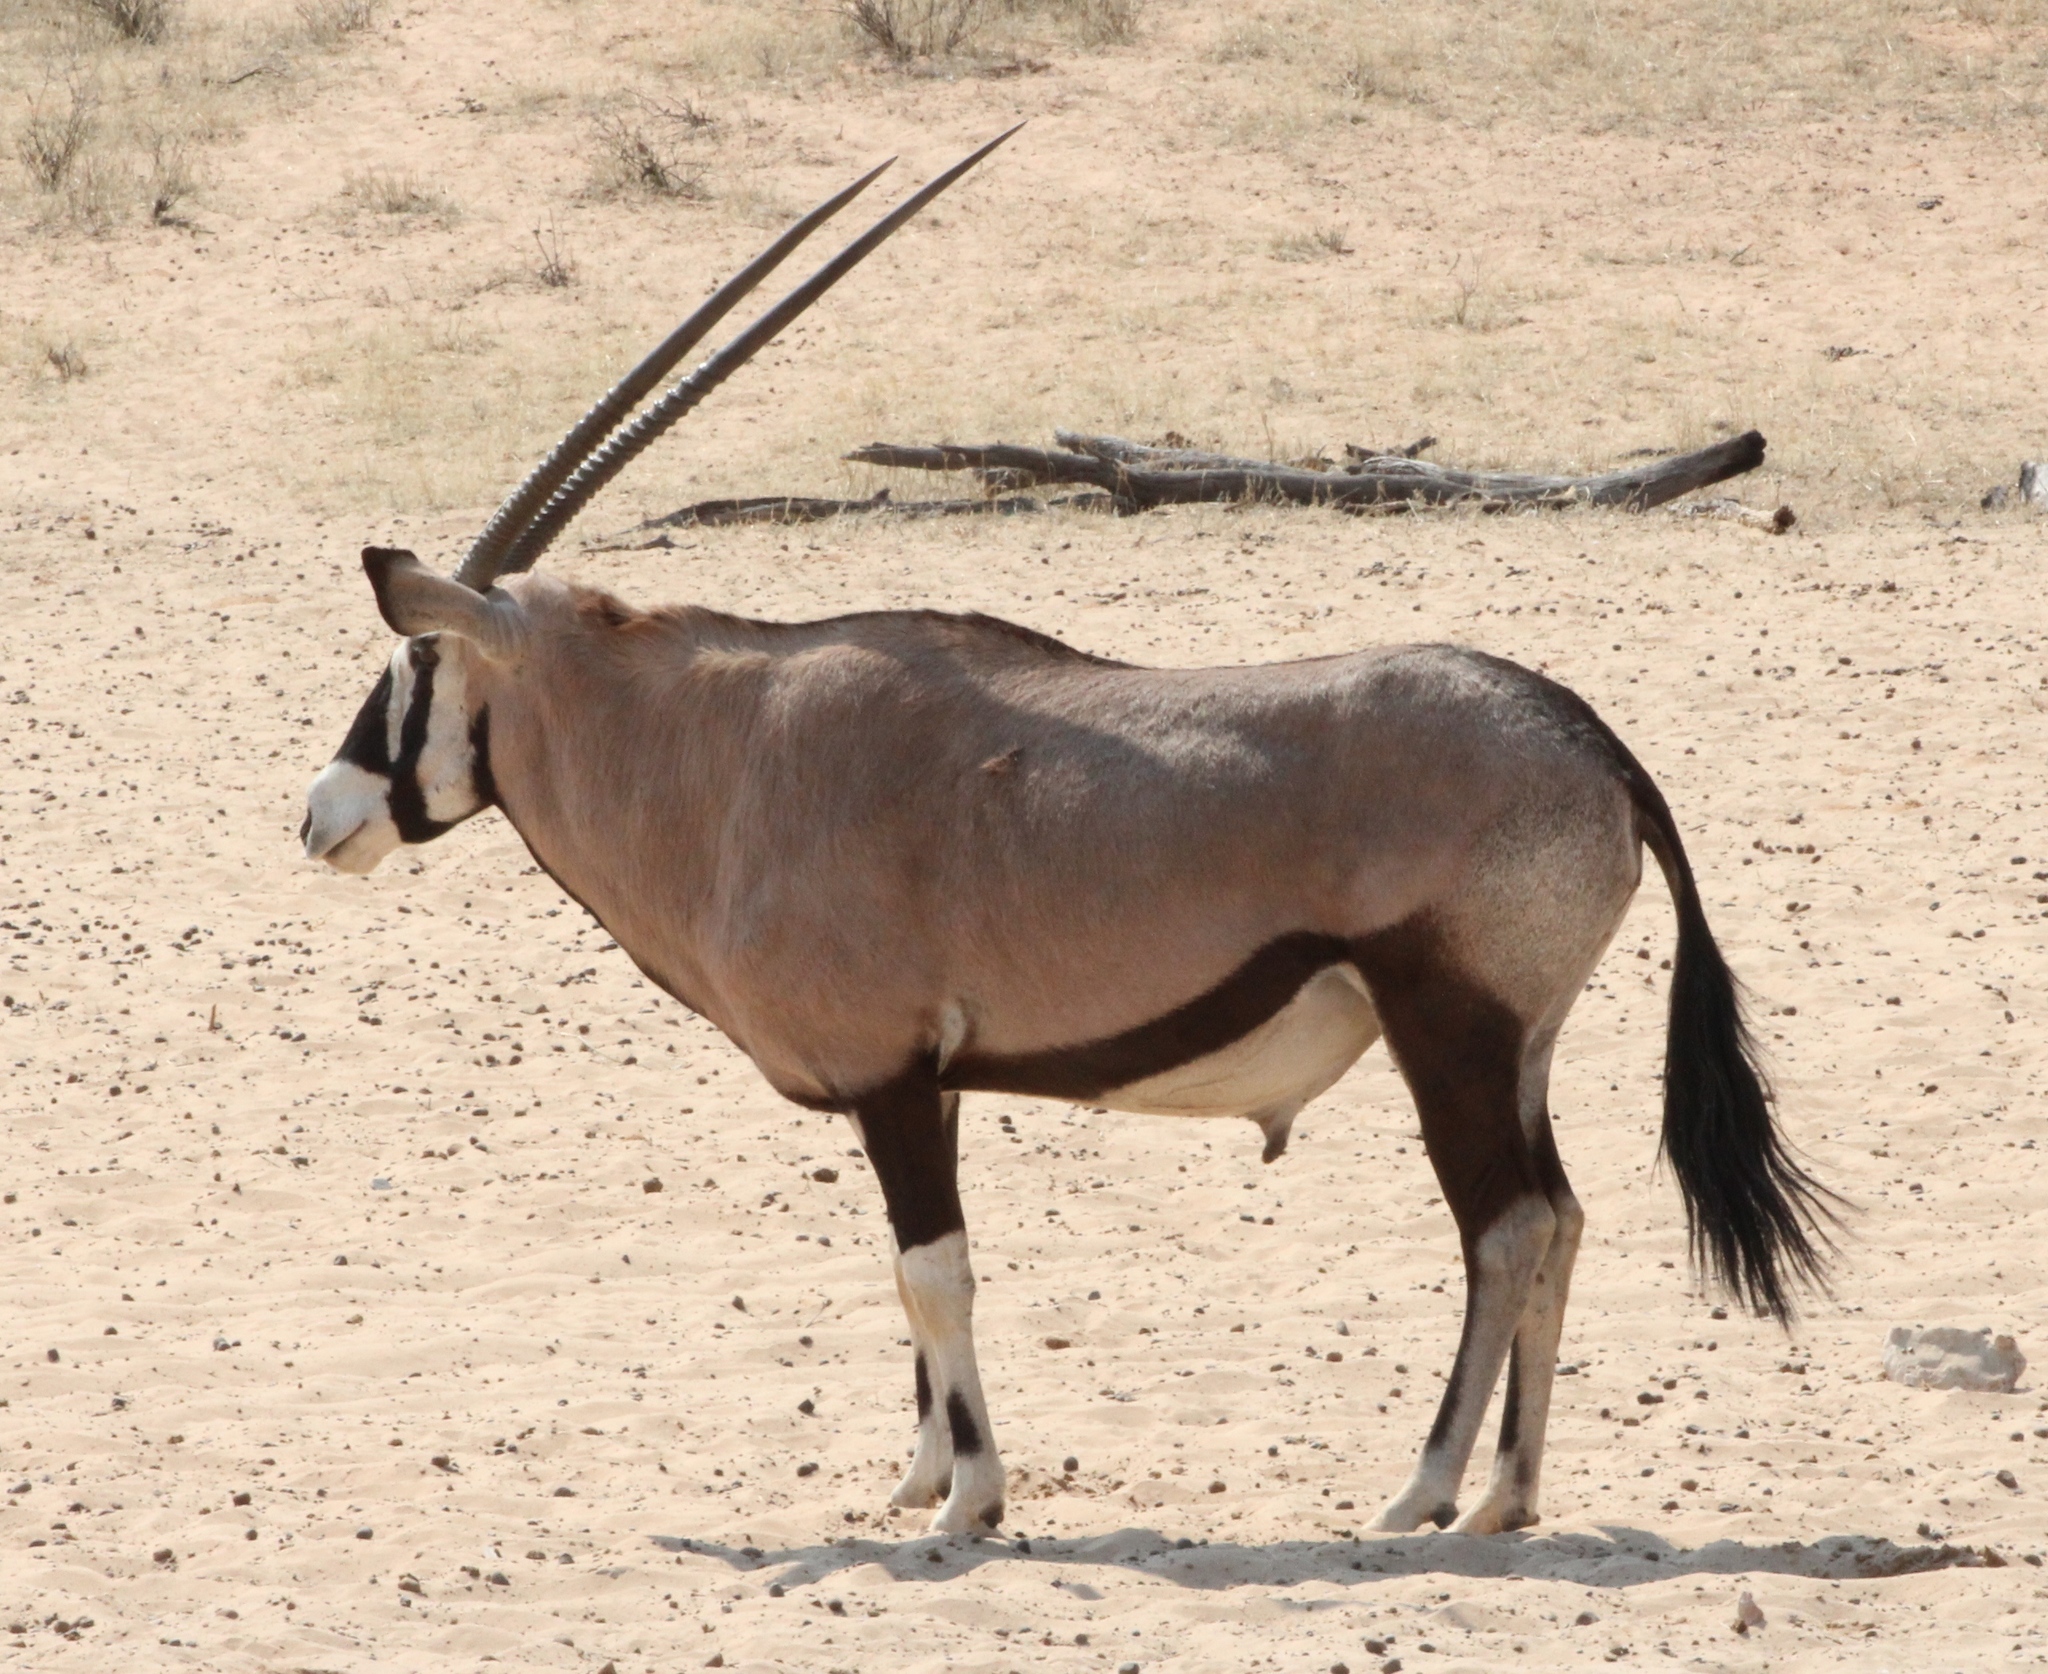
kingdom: Animalia
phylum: Chordata
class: Mammalia
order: Artiodactyla
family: Bovidae
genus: Oryx
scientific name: Oryx gazella
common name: Gemsbok
